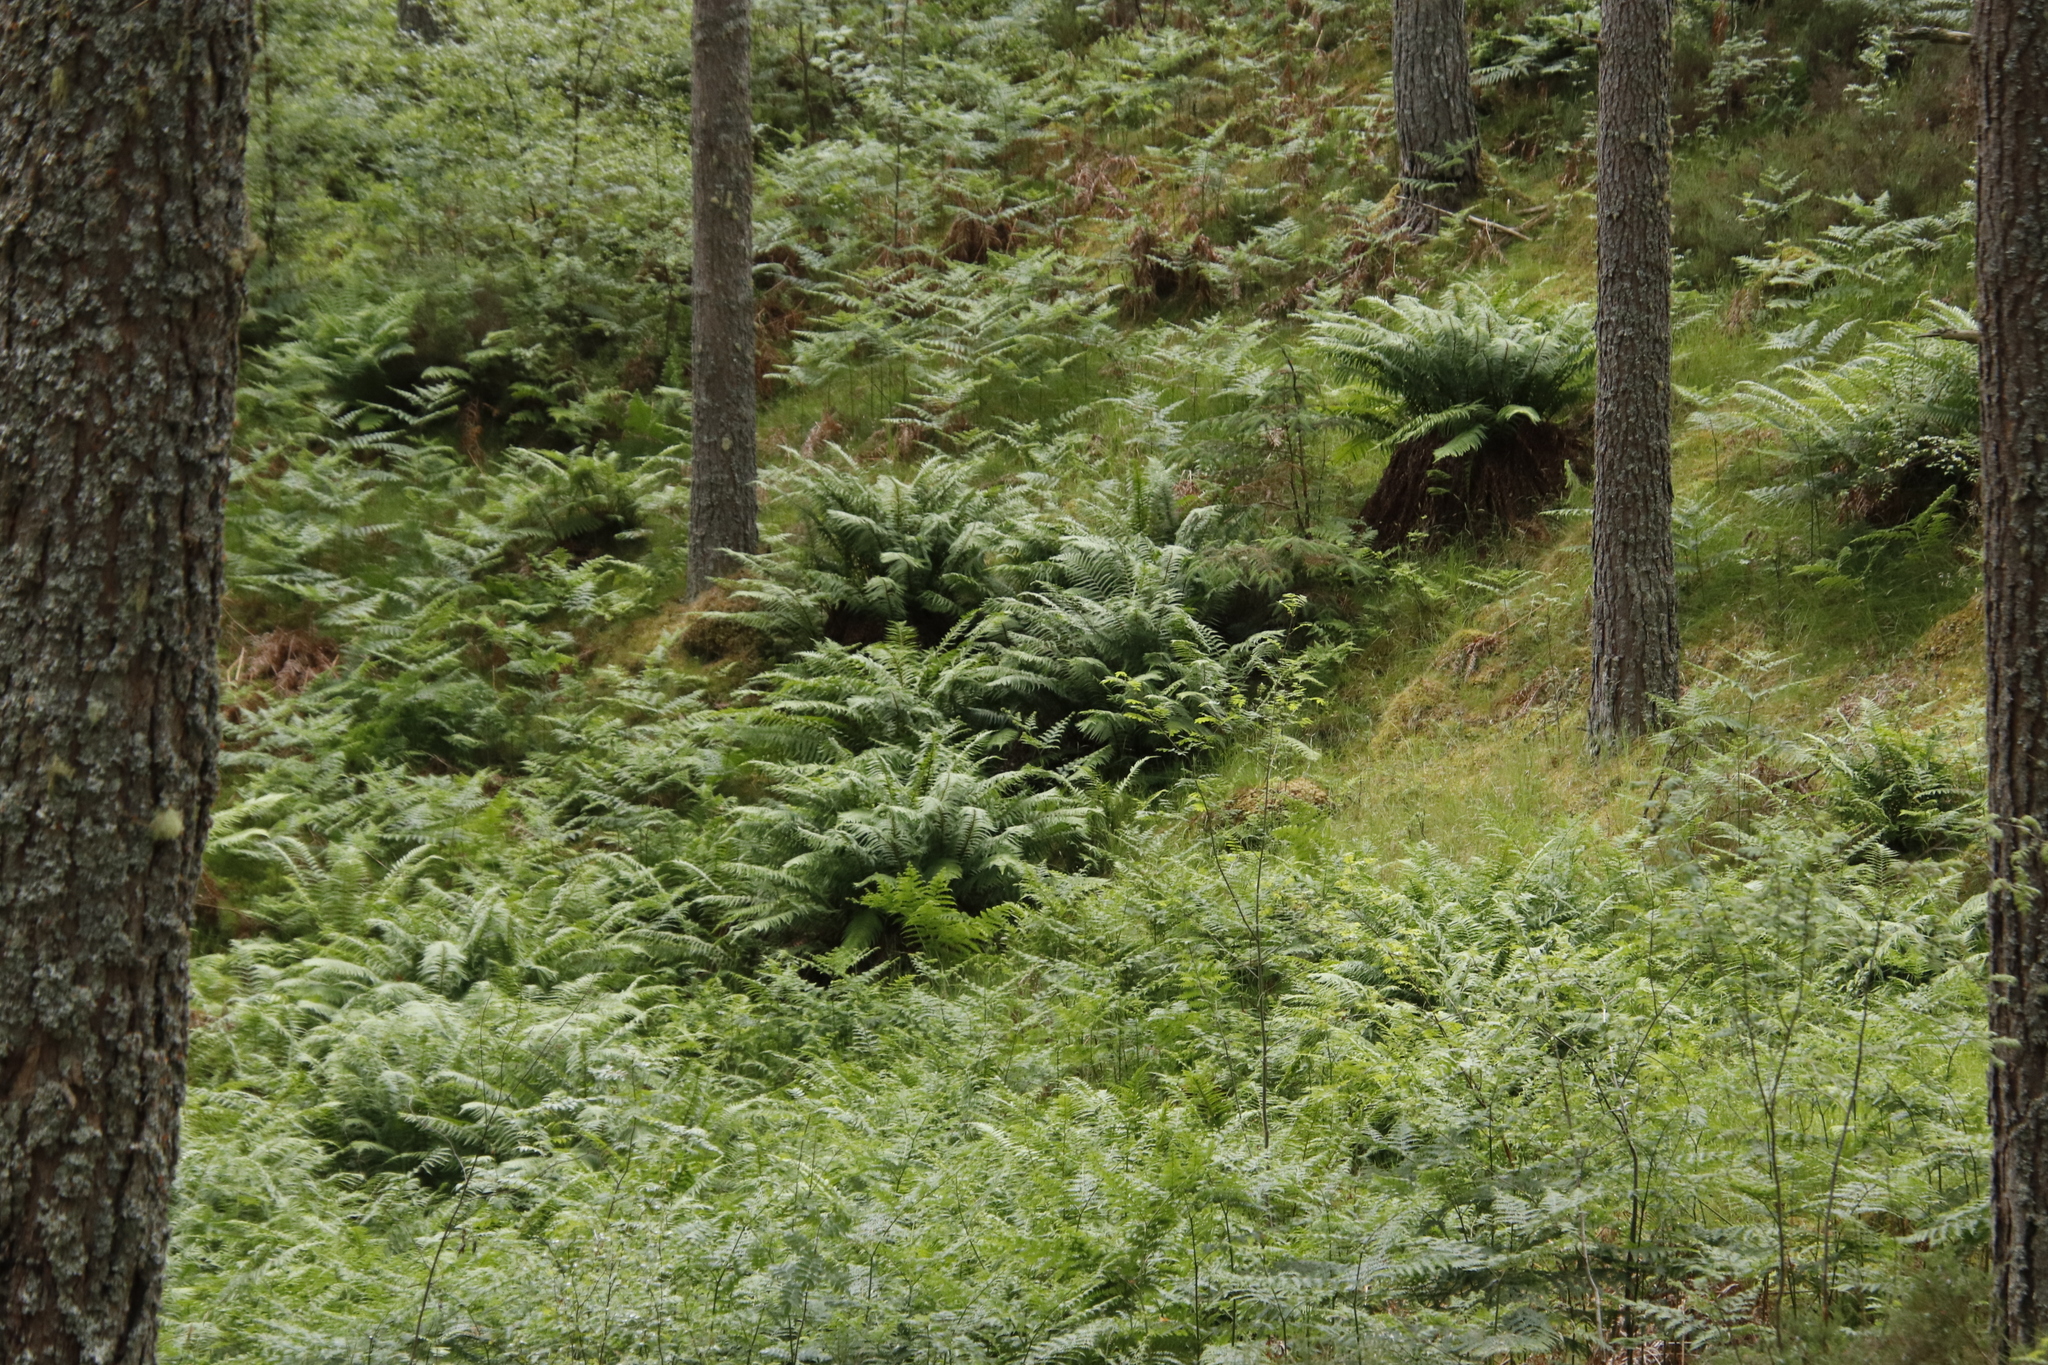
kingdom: Plantae
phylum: Tracheophyta
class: Polypodiopsida
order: Polypodiales
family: Thelypteridaceae
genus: Oreopteris
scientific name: Oreopteris limbosperma
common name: Lemon-scented fern
